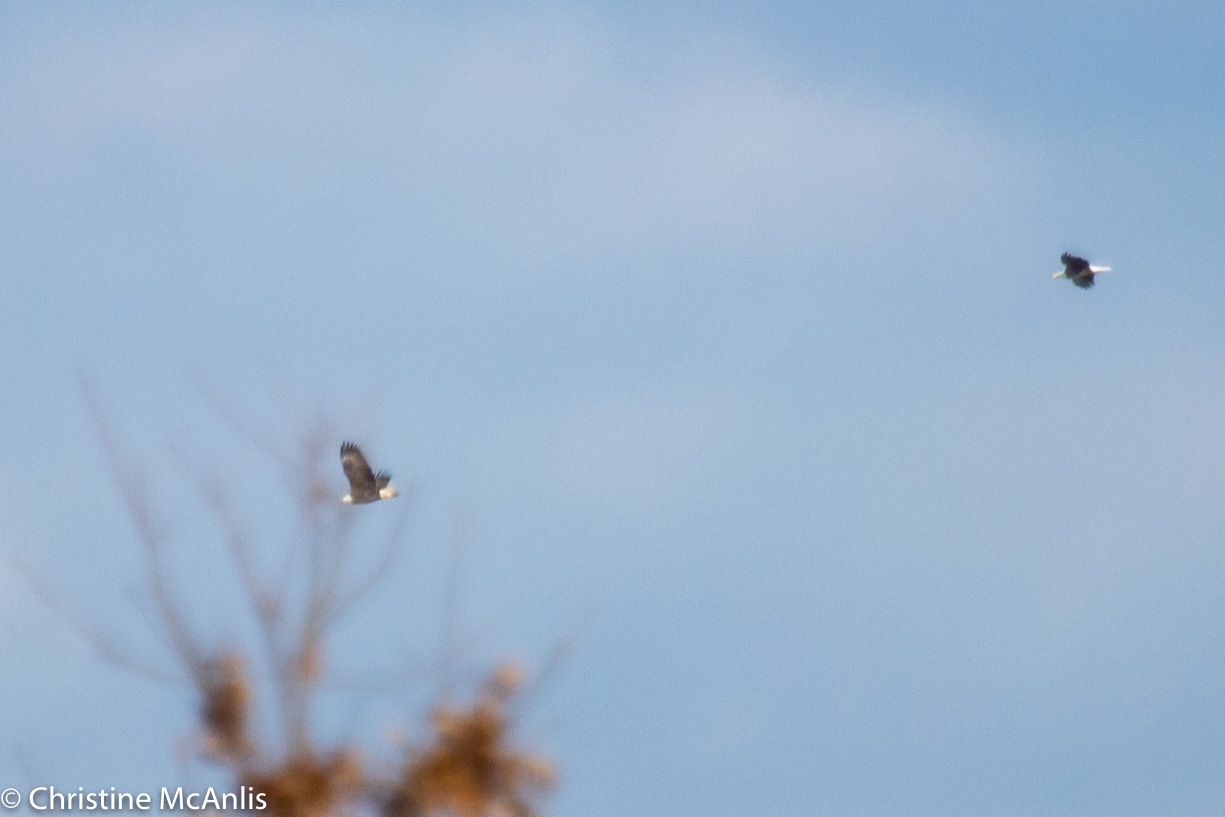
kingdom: Animalia
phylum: Chordata
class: Aves
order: Accipitriformes
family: Accipitridae
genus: Haliaeetus
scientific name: Haliaeetus leucocephalus
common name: Bald eagle
